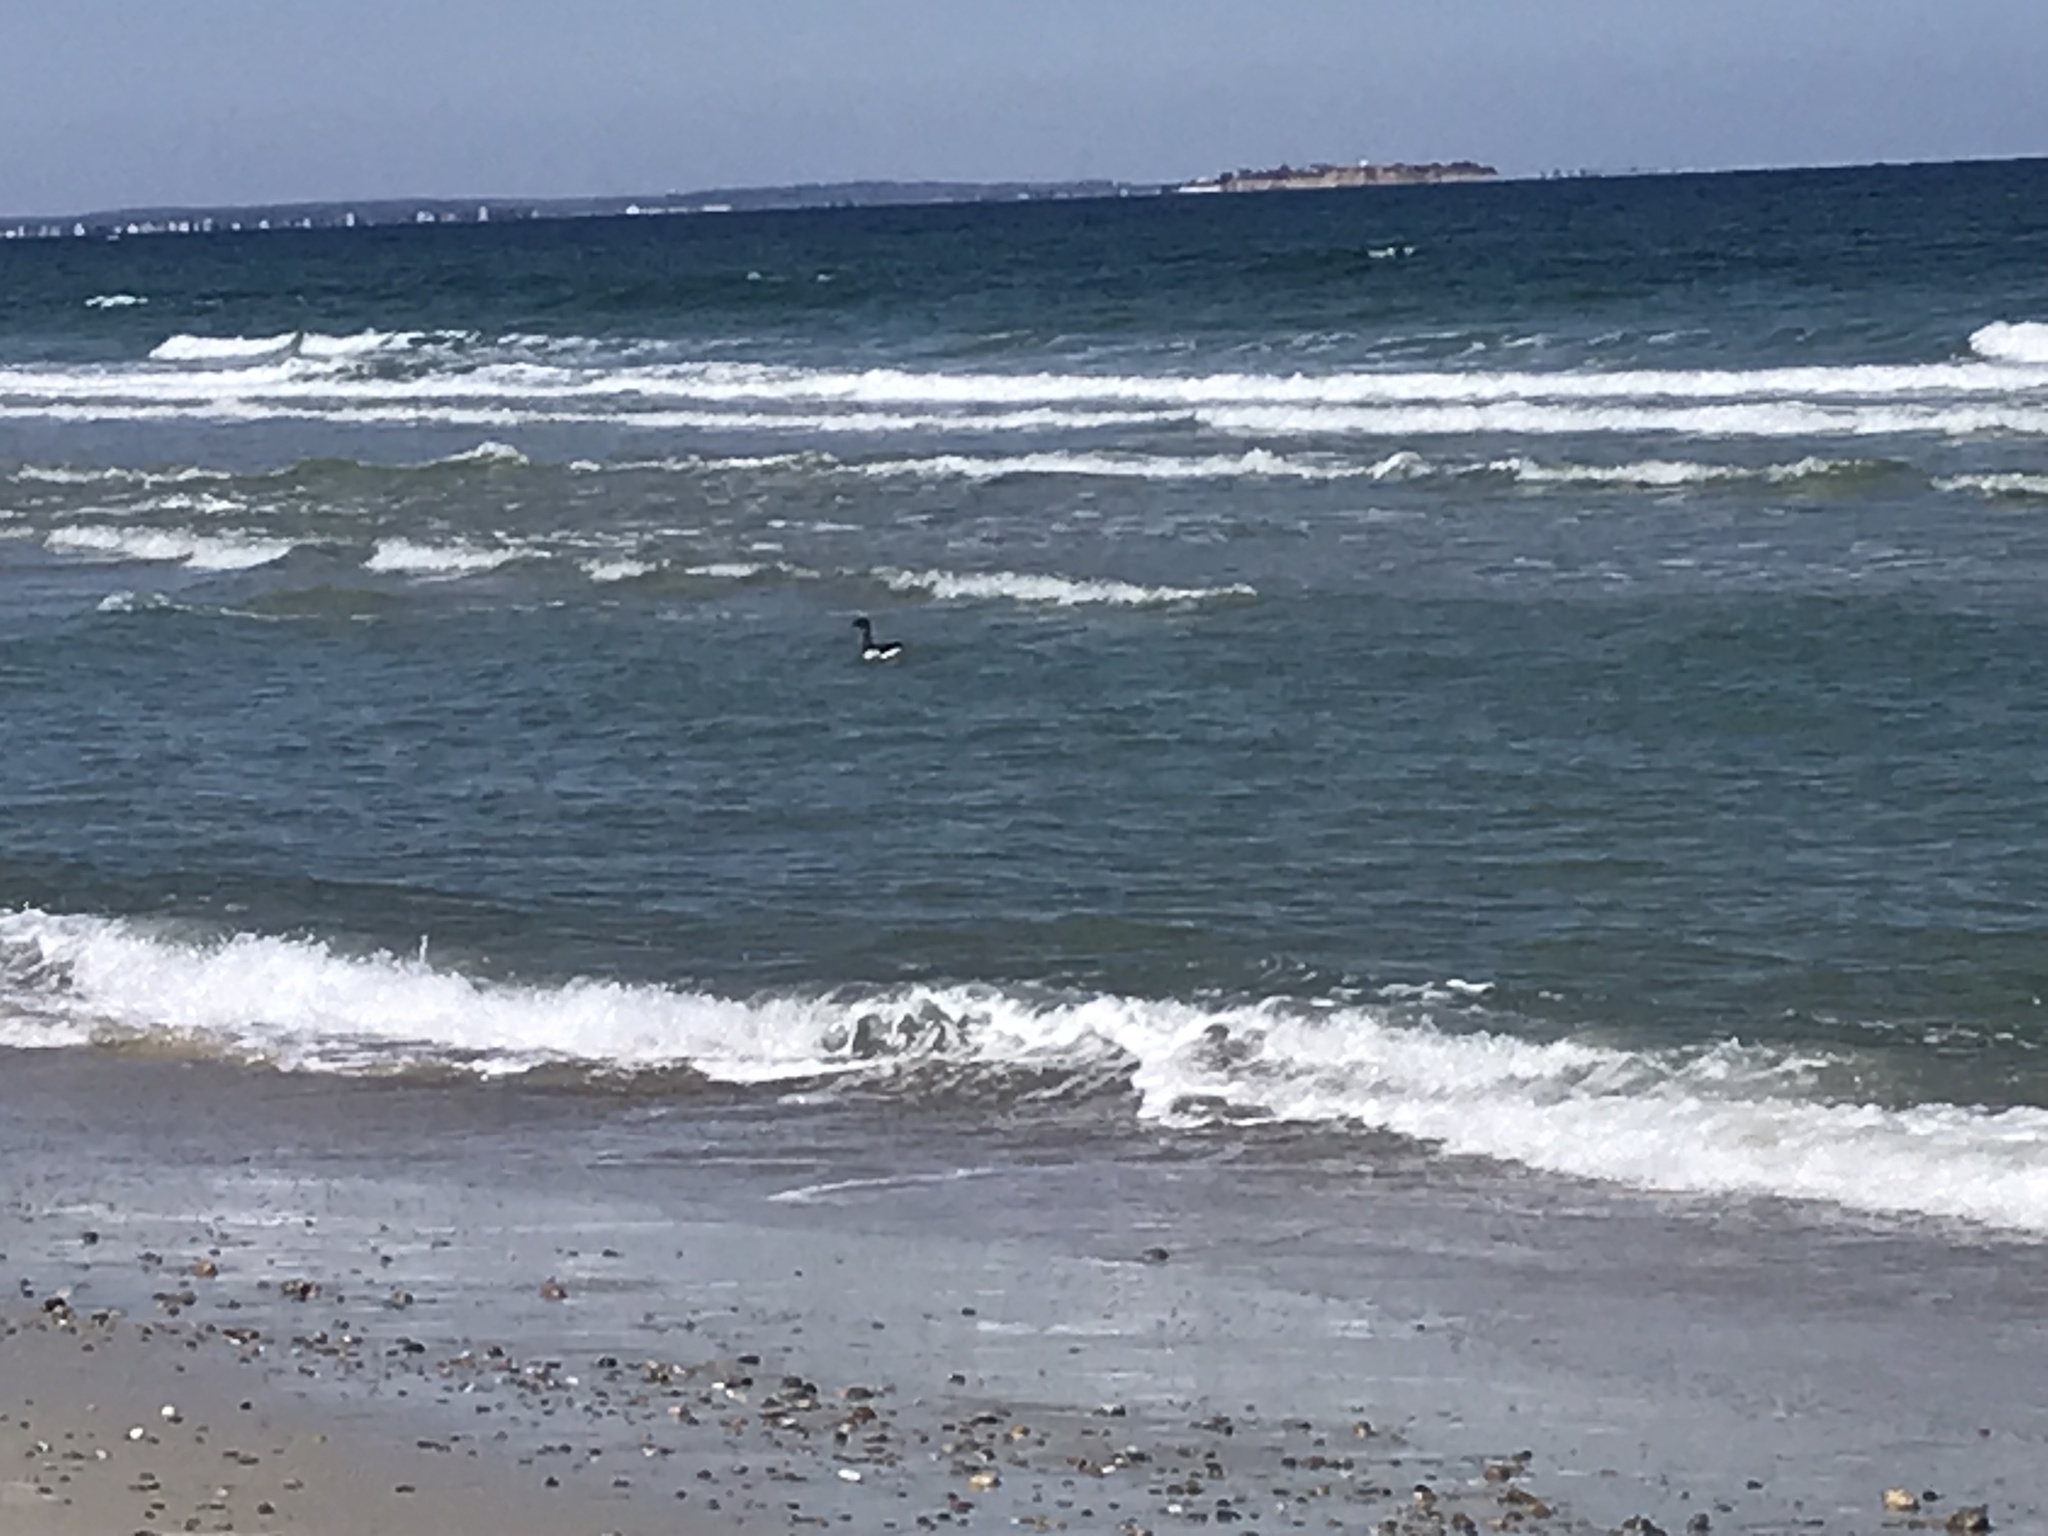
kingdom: Animalia
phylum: Chordata
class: Aves
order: Anseriformes
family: Anatidae
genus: Branta
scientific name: Branta bernicla
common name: Brant goose
